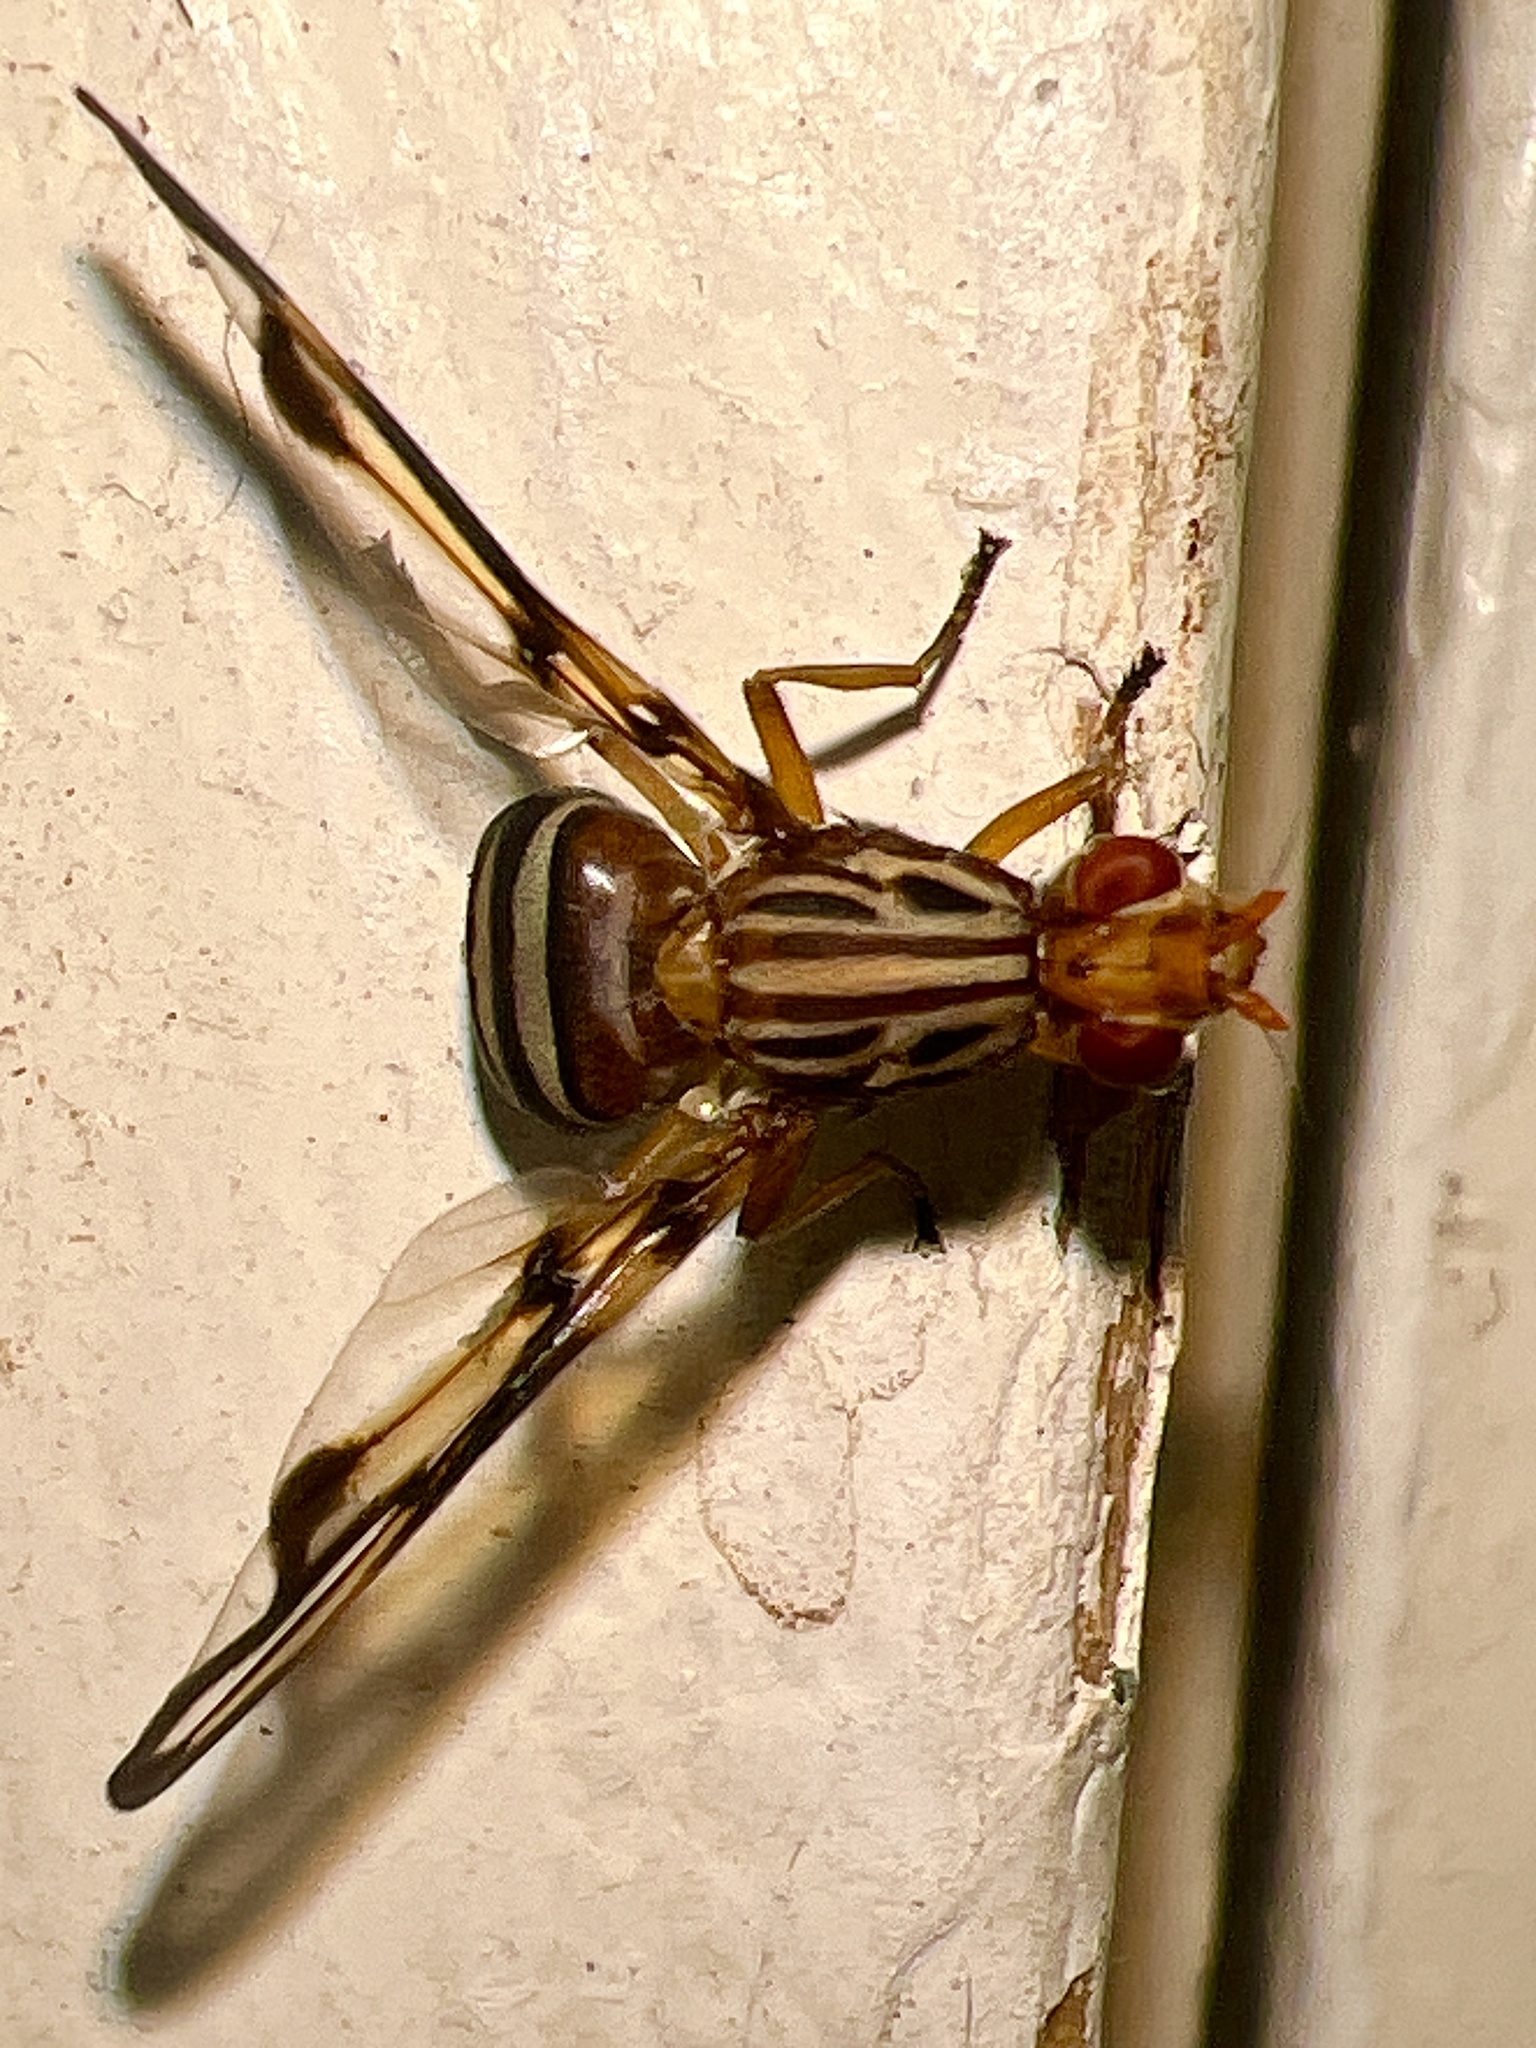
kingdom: Animalia
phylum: Arthropoda
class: Insecta
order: Diptera
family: Ulidiidae
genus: Idana
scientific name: Idana marginata
